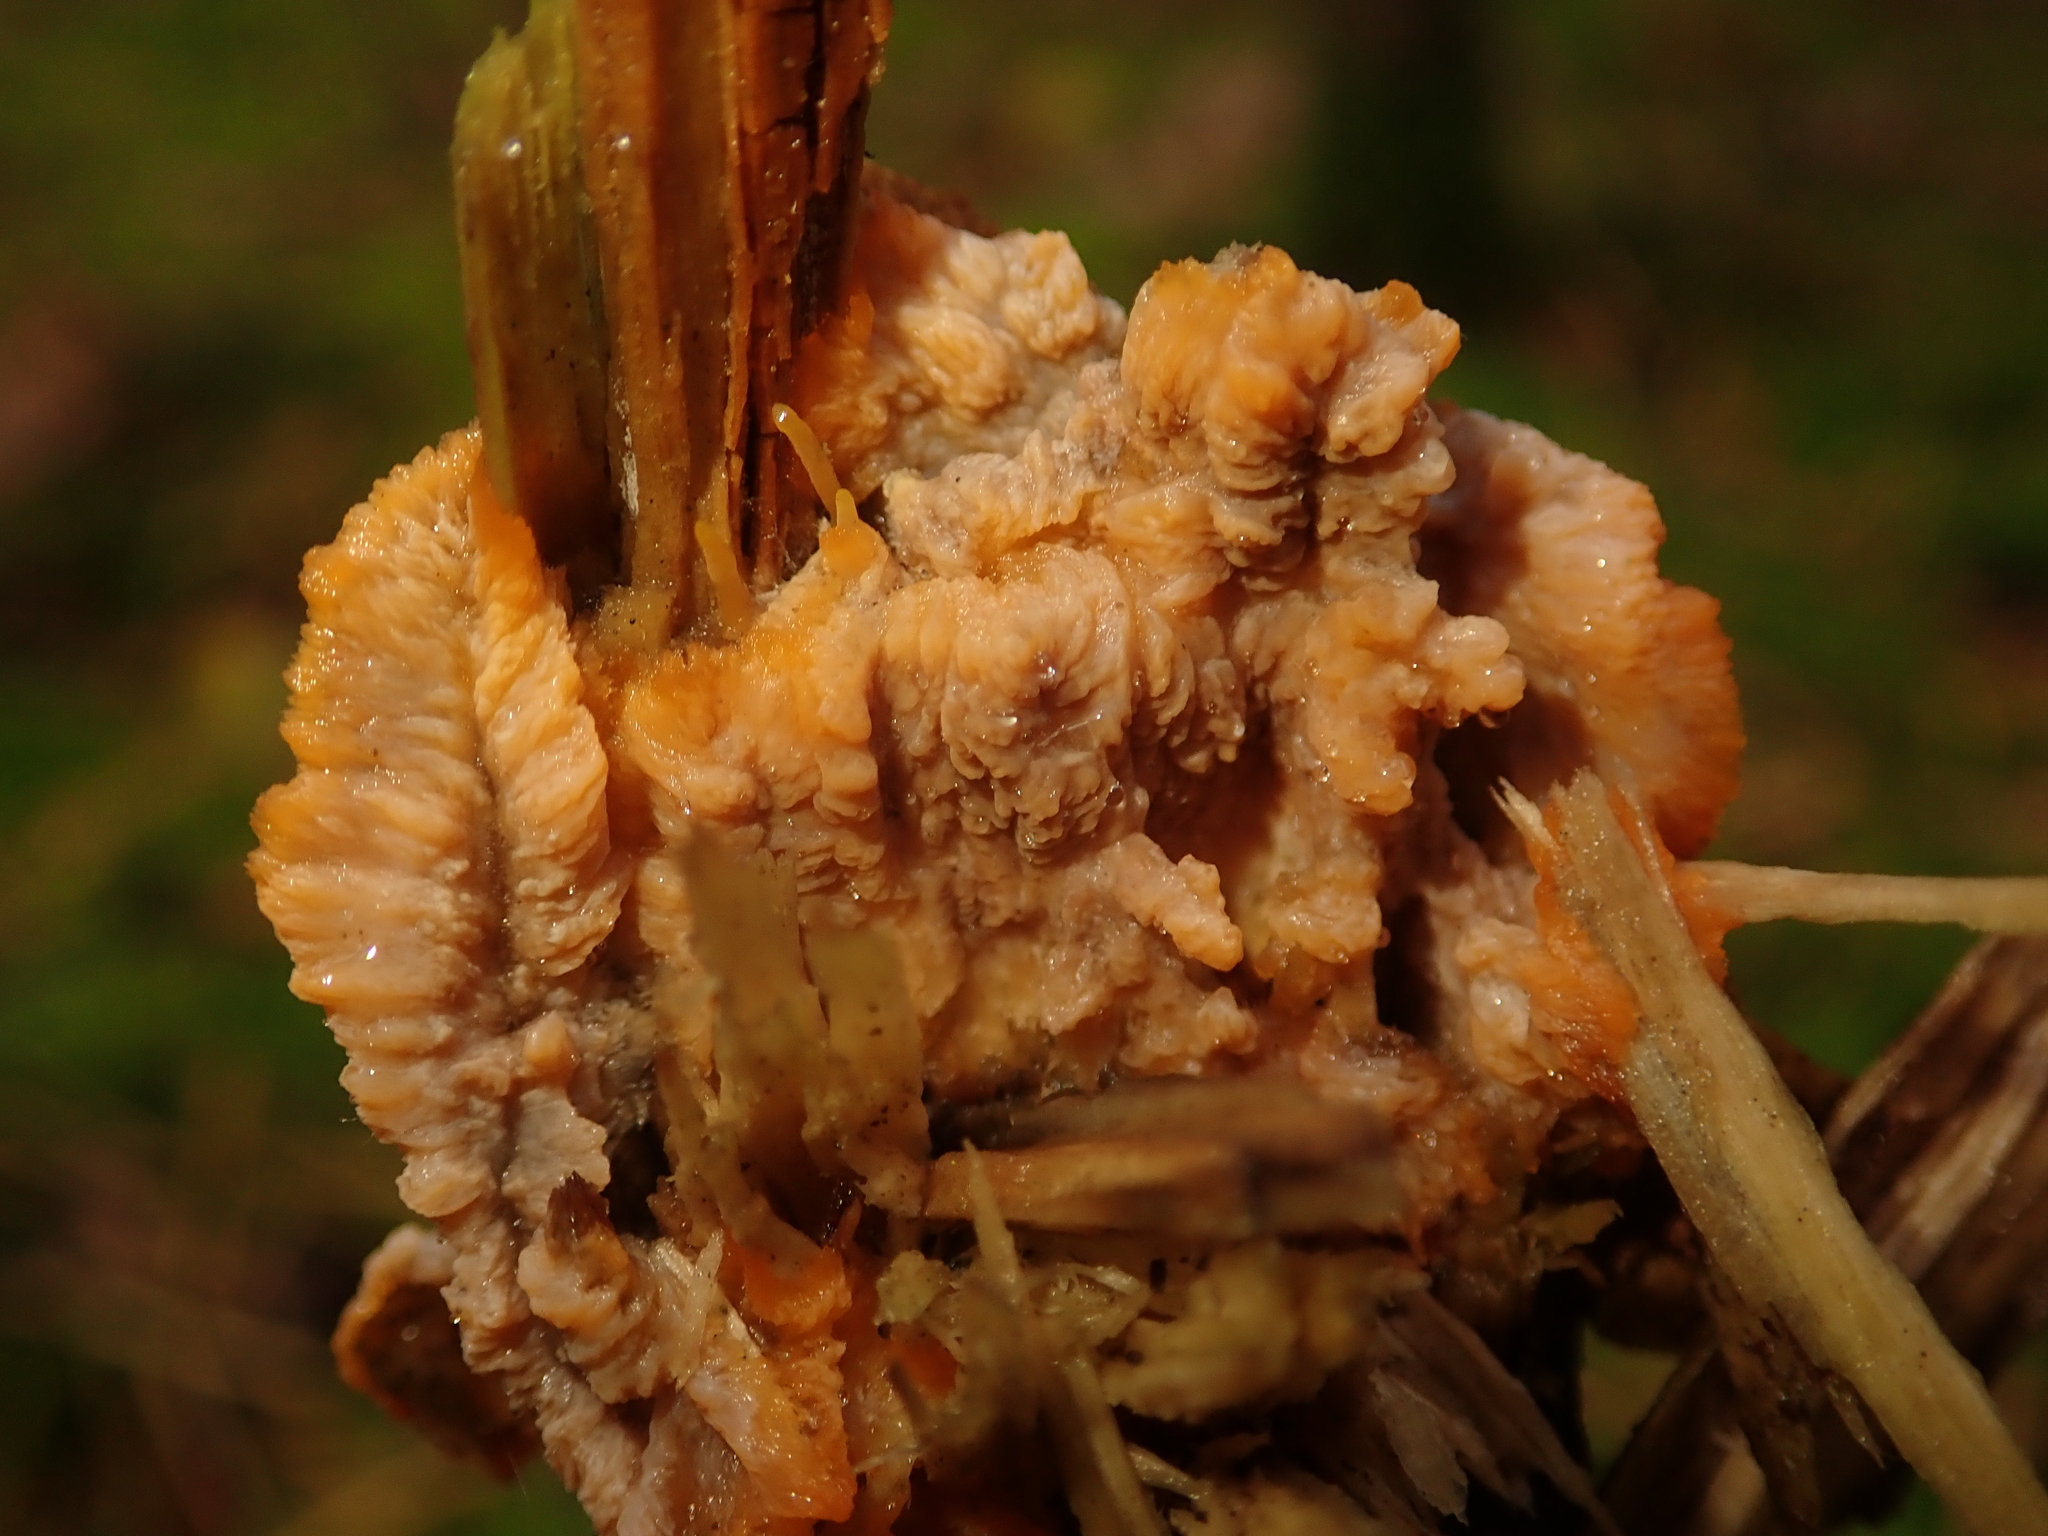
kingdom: Fungi
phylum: Basidiomycota
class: Agaricomycetes
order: Polyporales
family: Meruliaceae
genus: Phlebia
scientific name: Phlebia radiata
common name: Wrinkled crust
